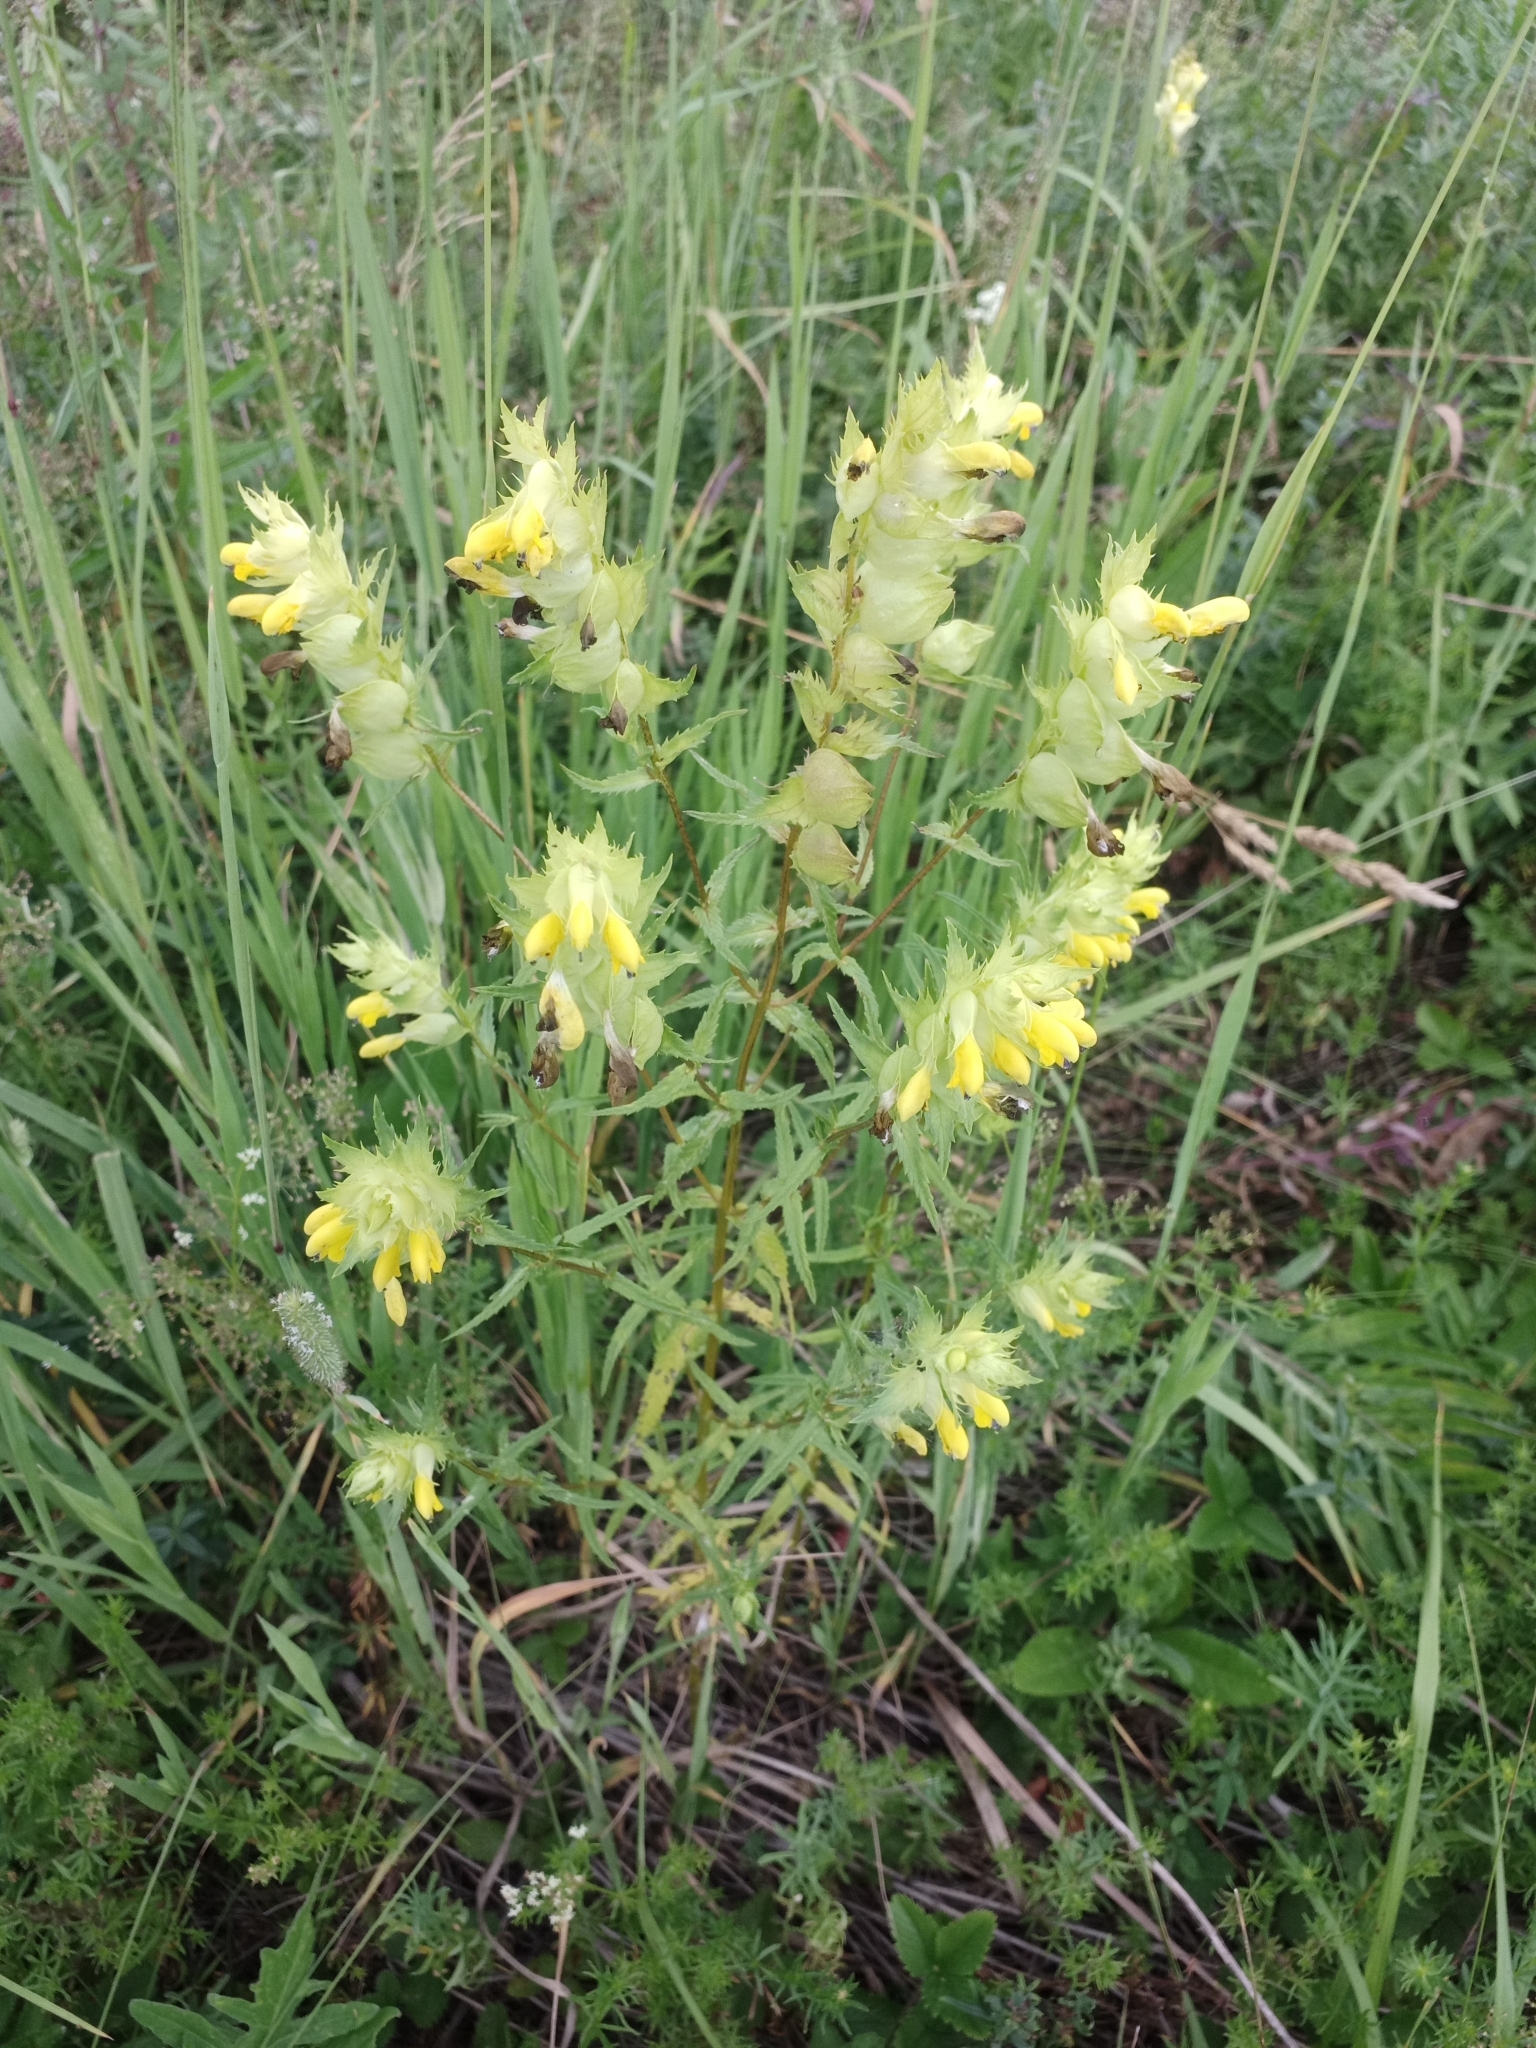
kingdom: Plantae
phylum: Tracheophyta
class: Magnoliopsida
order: Lamiales
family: Orobanchaceae
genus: Rhinanthus
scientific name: Rhinanthus serotinus
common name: Late-flowering yellow rattle
